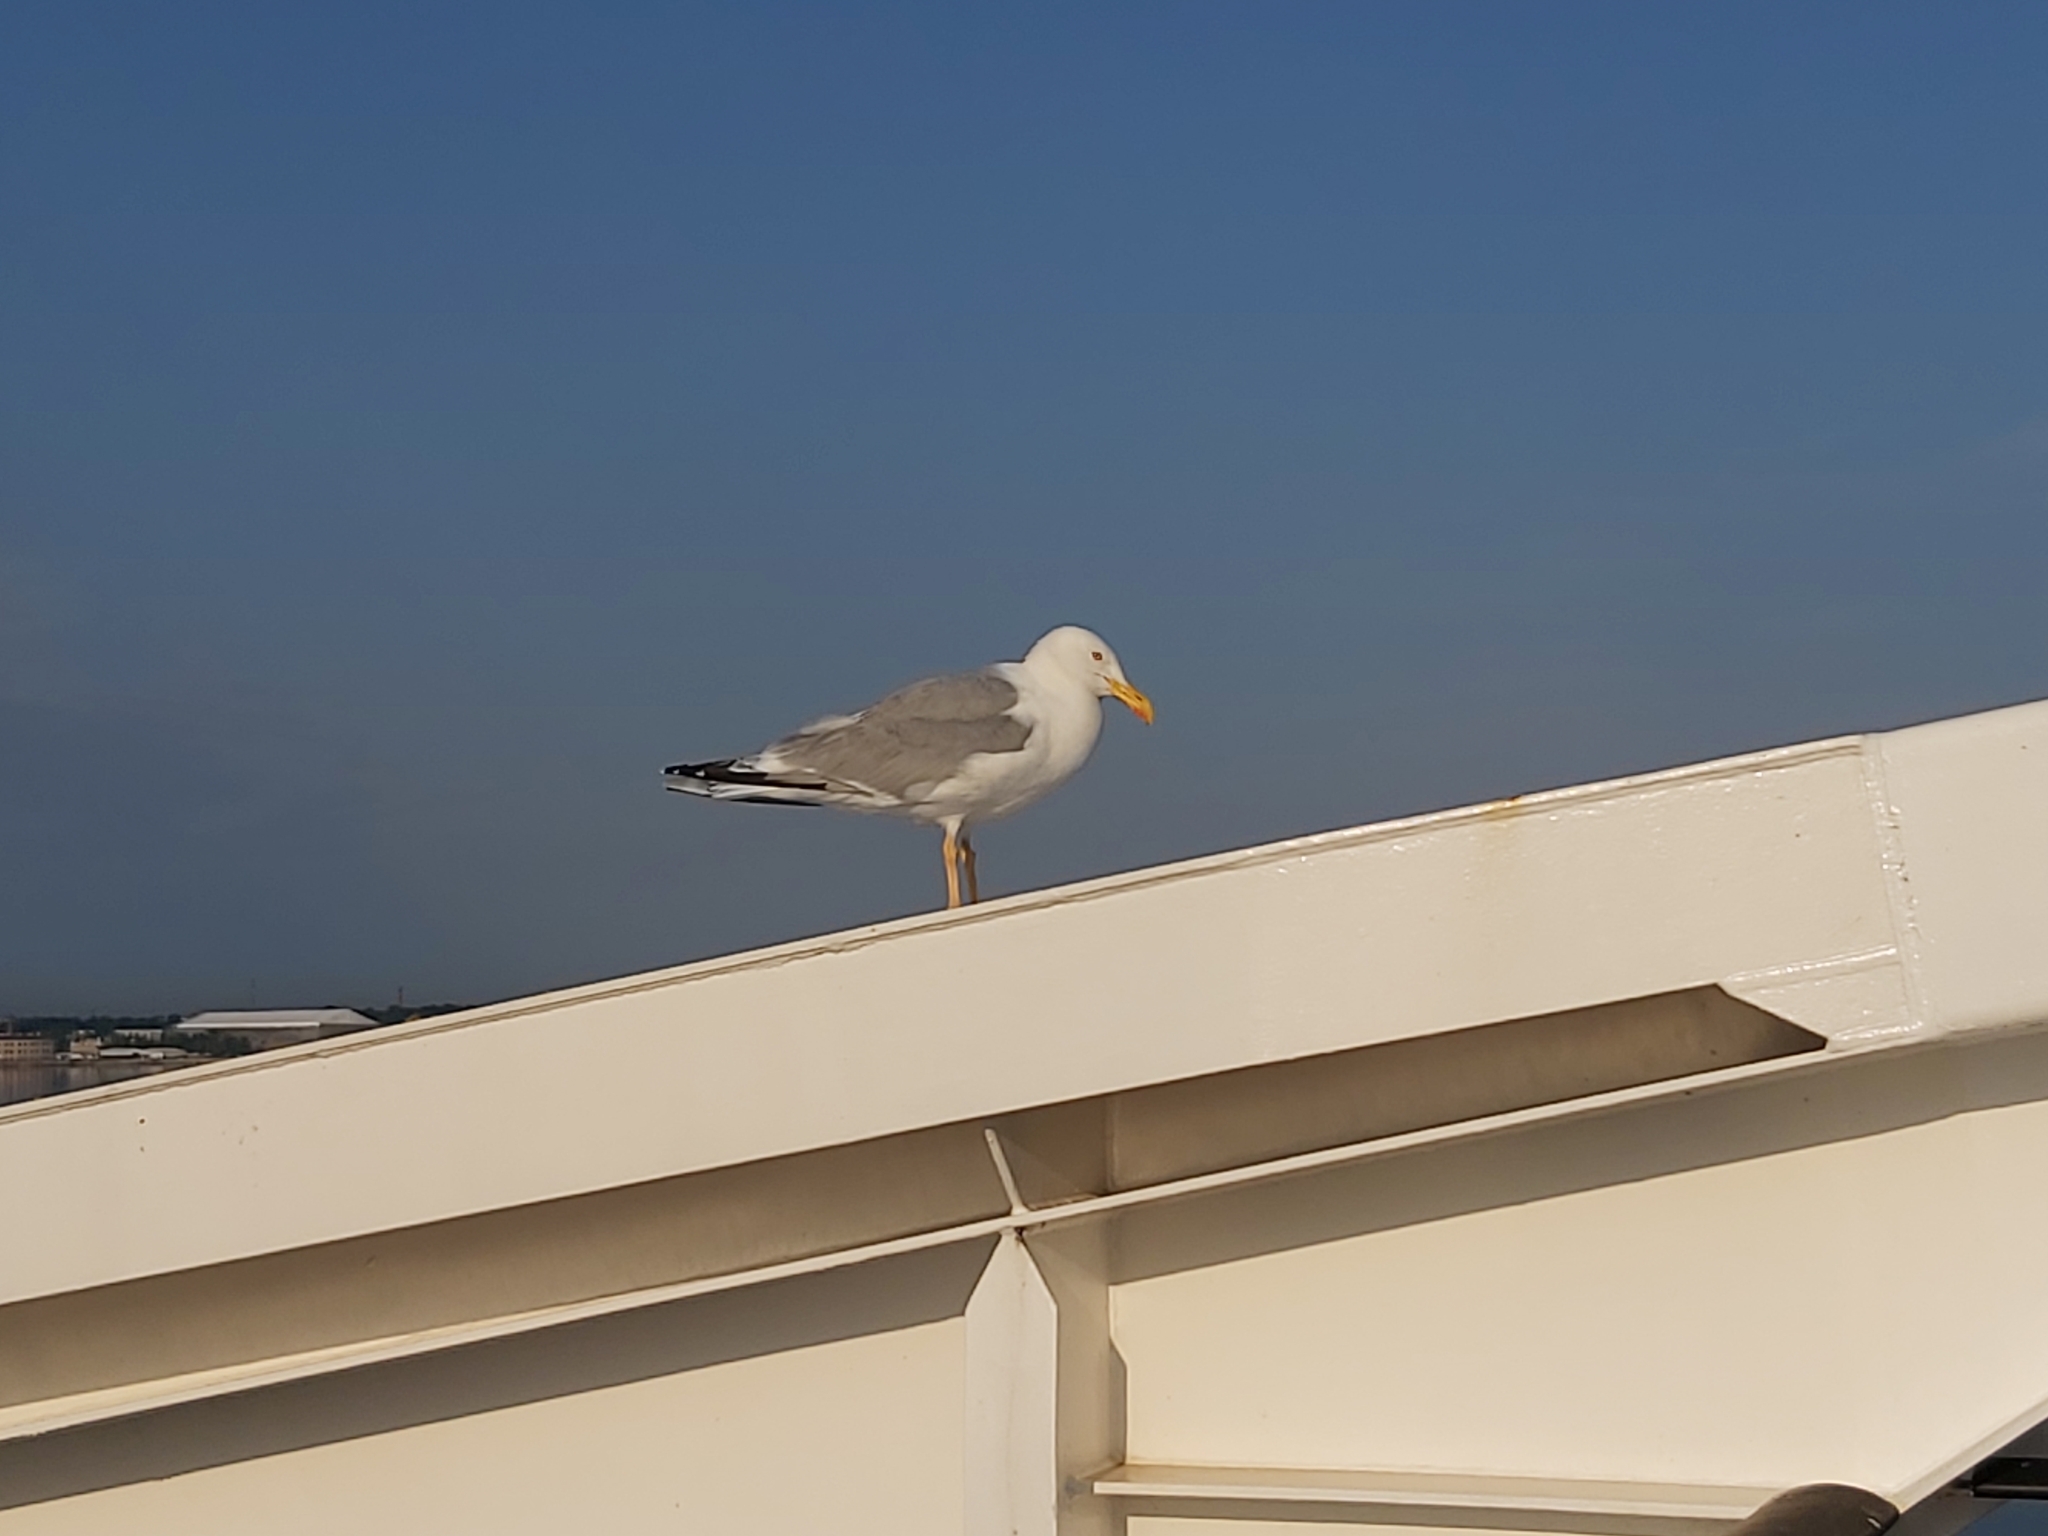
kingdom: Animalia
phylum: Chordata
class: Aves
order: Charadriiformes
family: Laridae
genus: Larus
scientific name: Larus argentatus
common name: Herring gull
